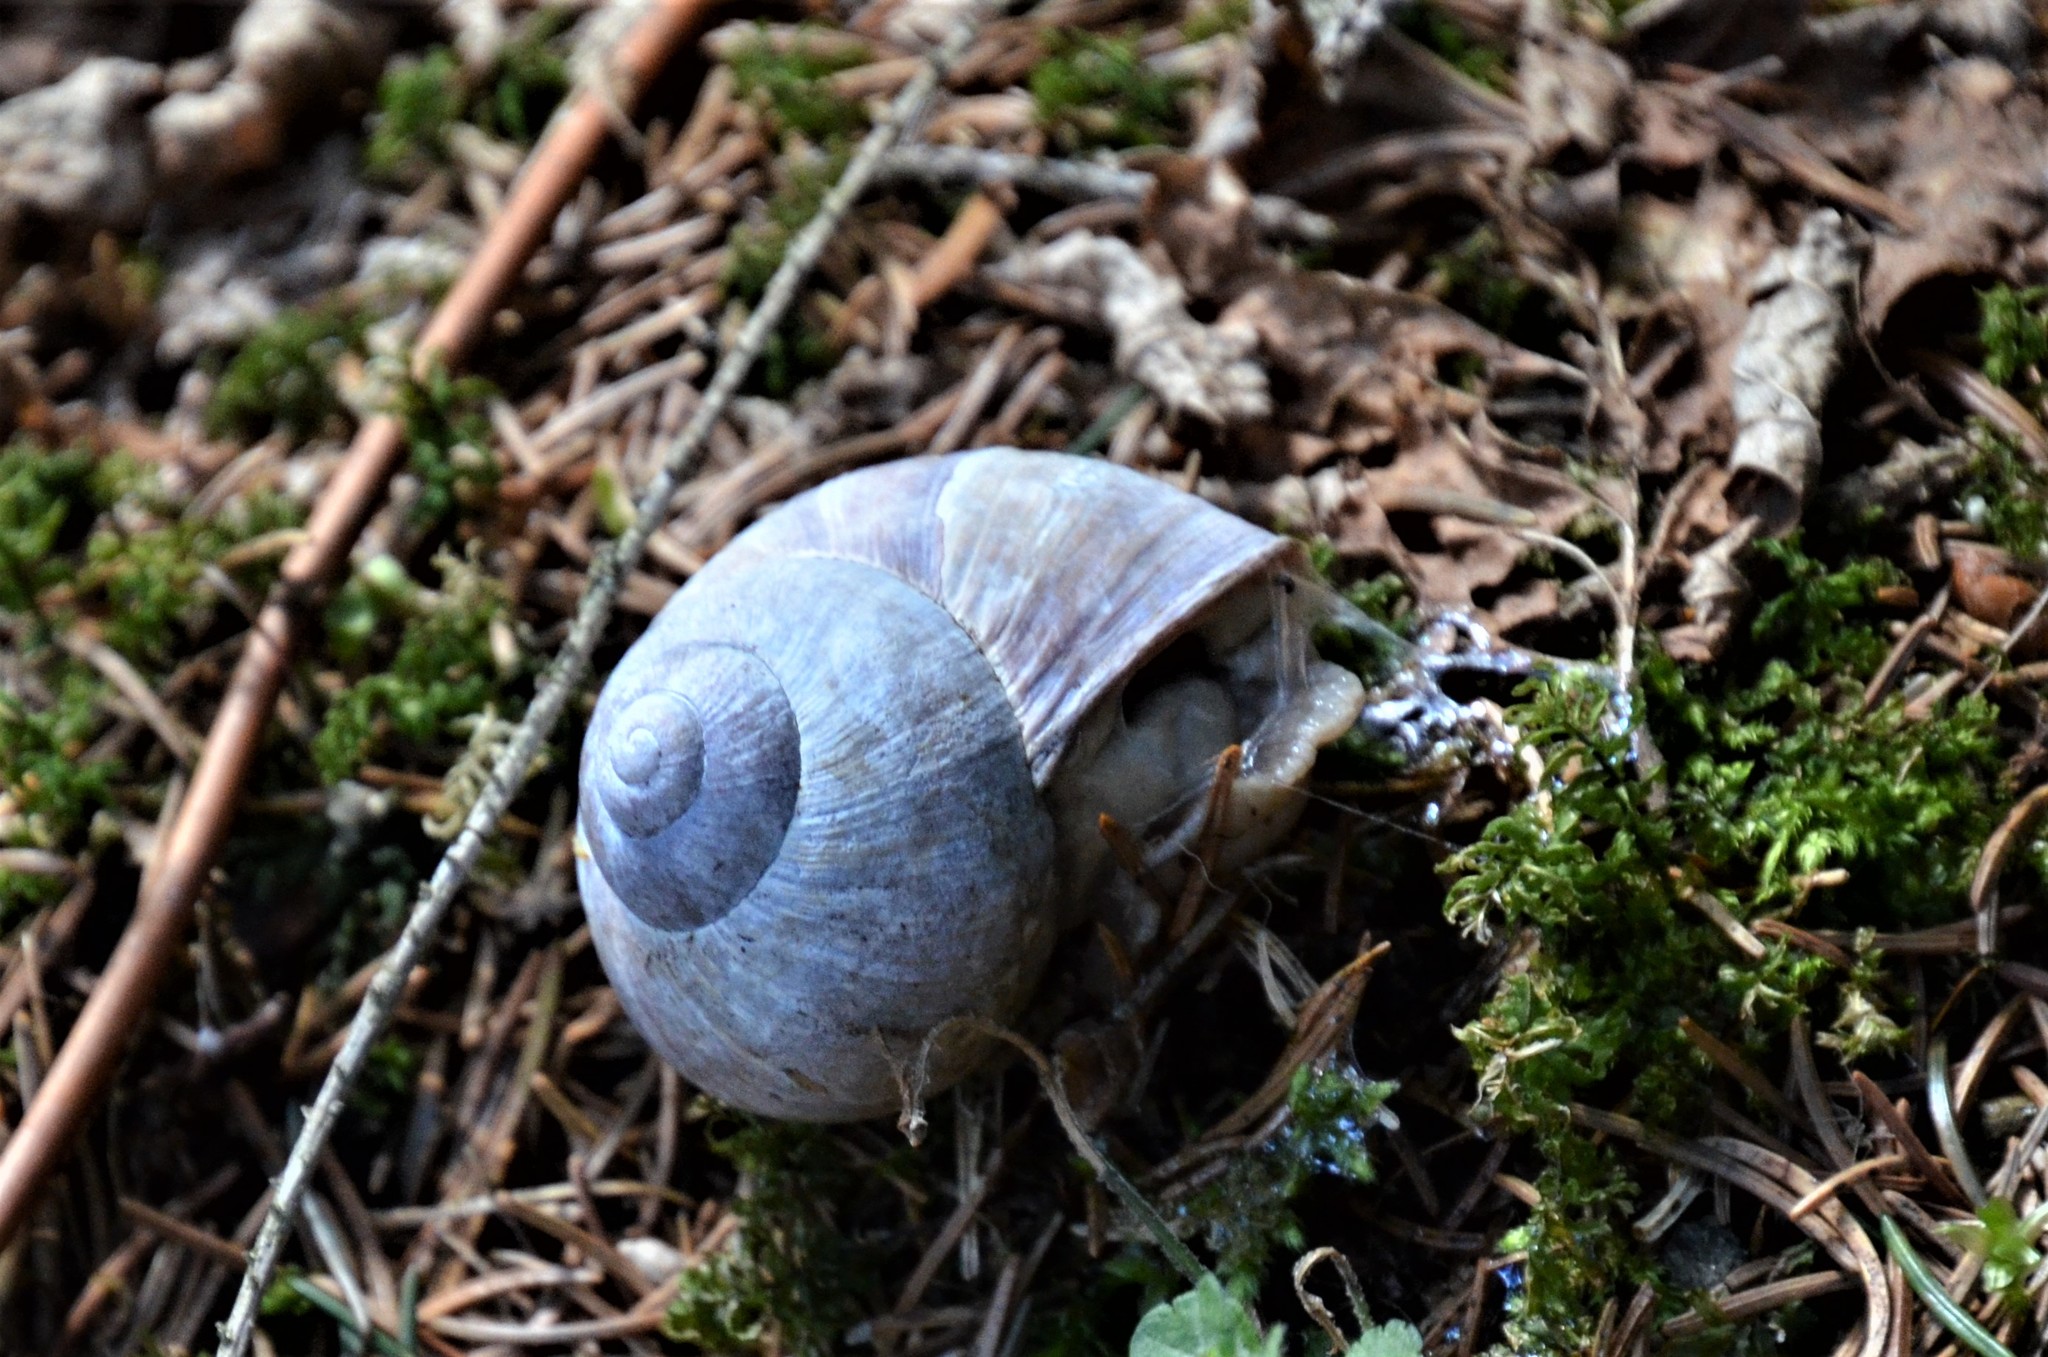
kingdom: Animalia
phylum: Mollusca
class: Gastropoda
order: Stylommatophora
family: Helicidae
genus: Helix
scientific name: Helix pomatia
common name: Roman snail
